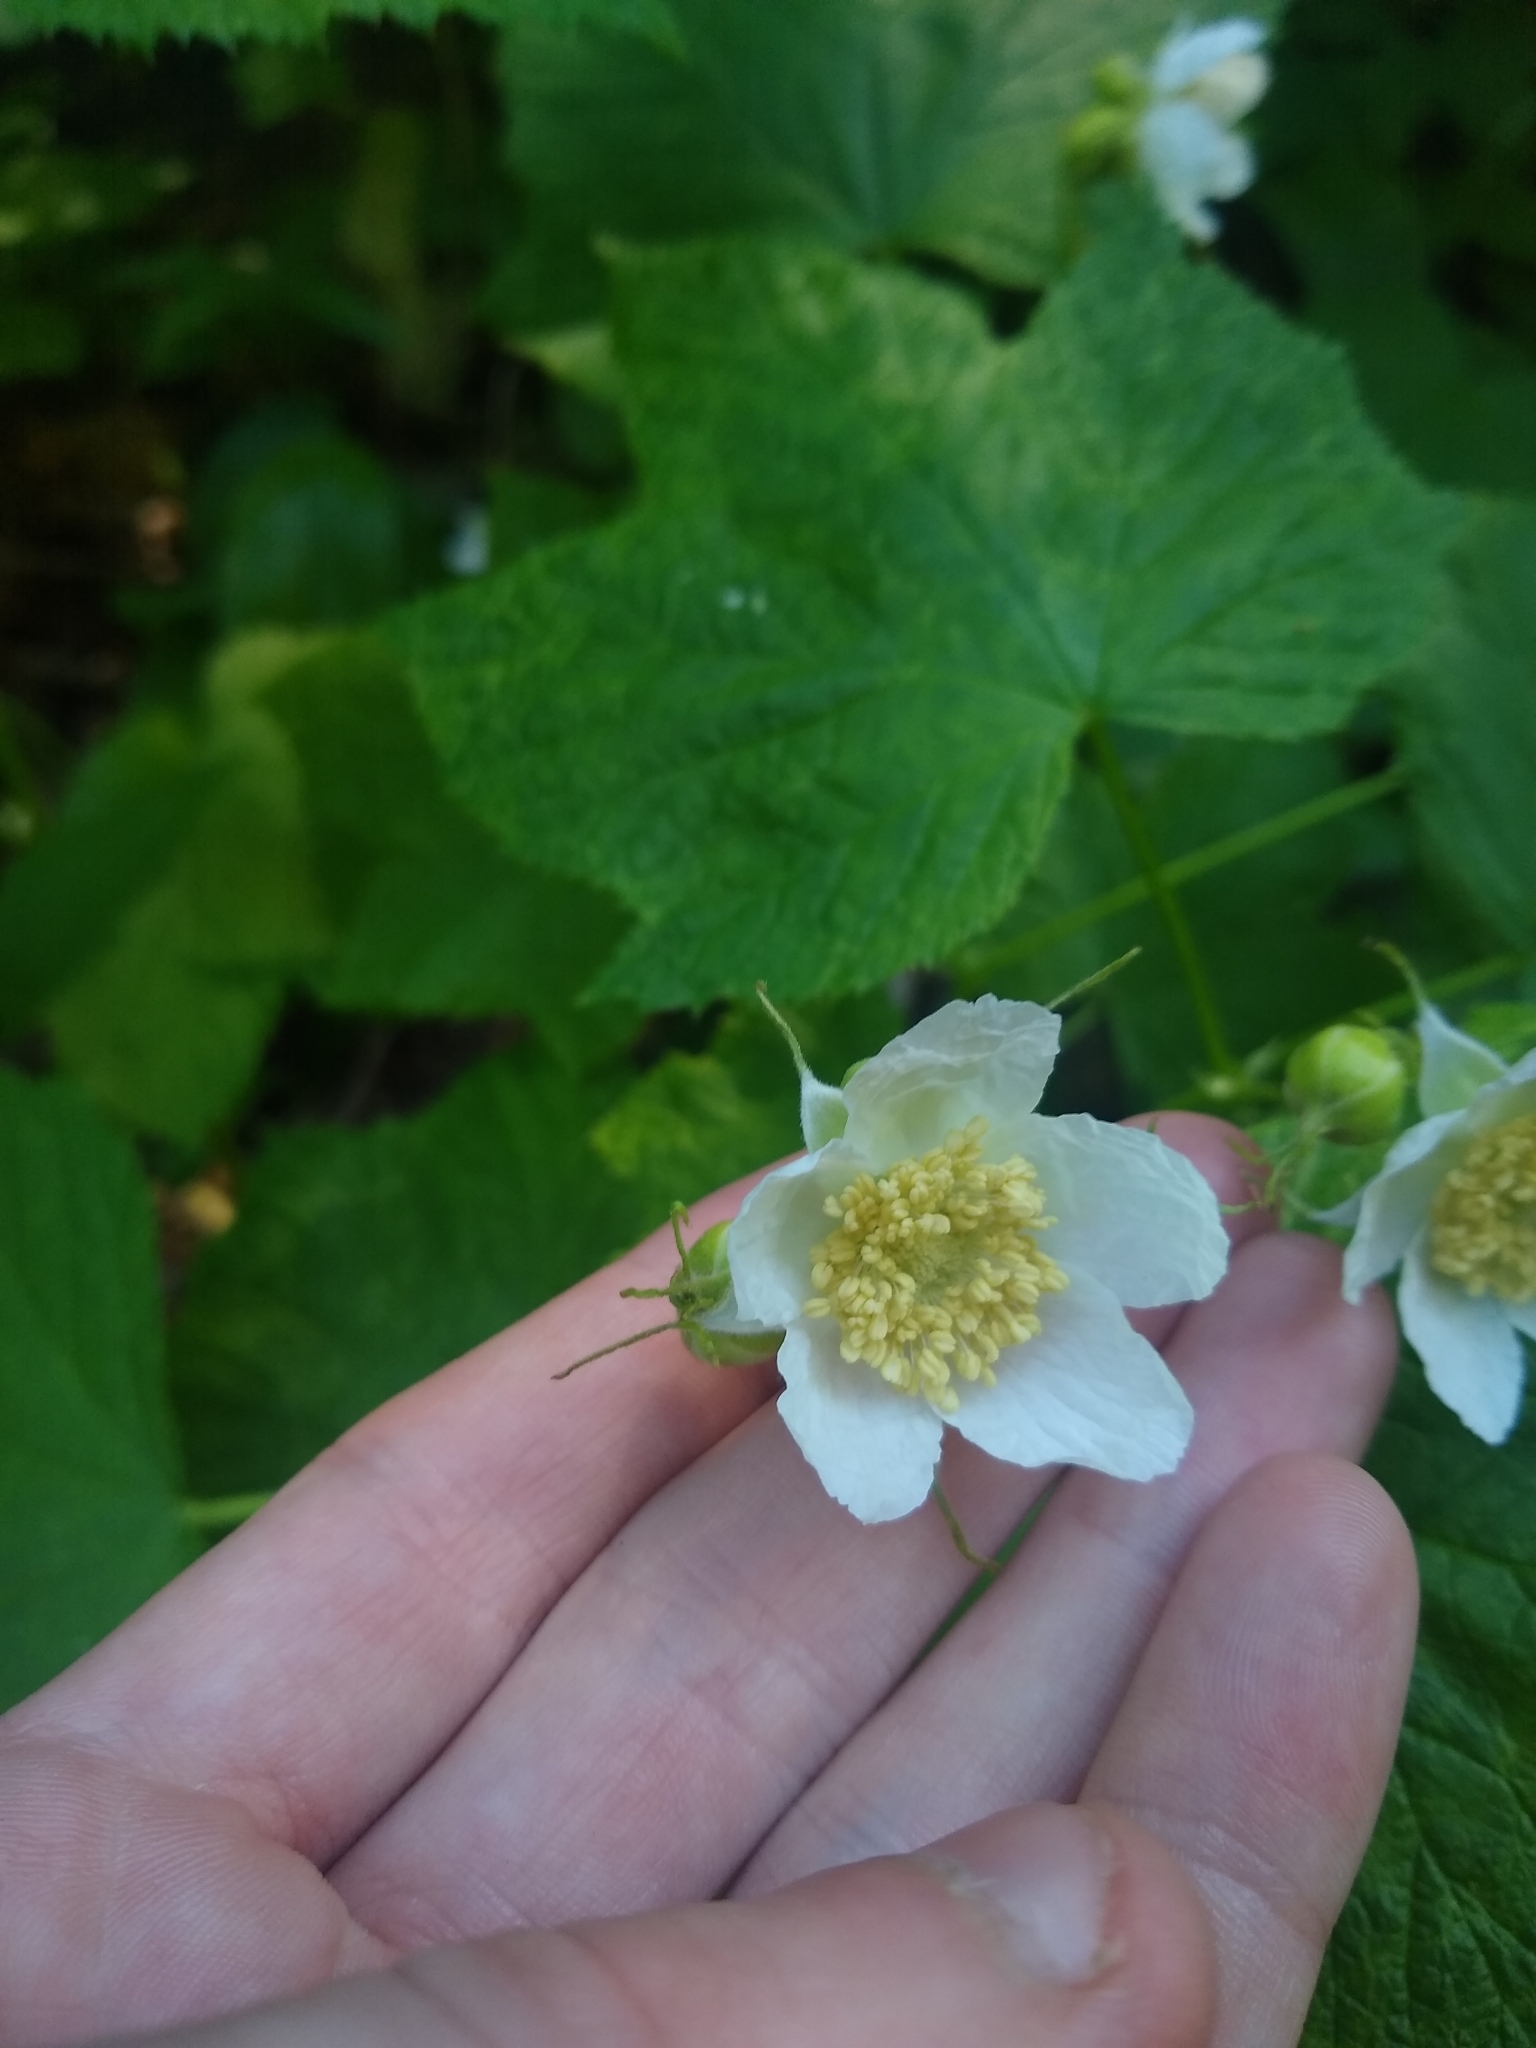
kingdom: Plantae
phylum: Tracheophyta
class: Magnoliopsida
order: Rosales
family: Rosaceae
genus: Rubus
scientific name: Rubus parviflorus
